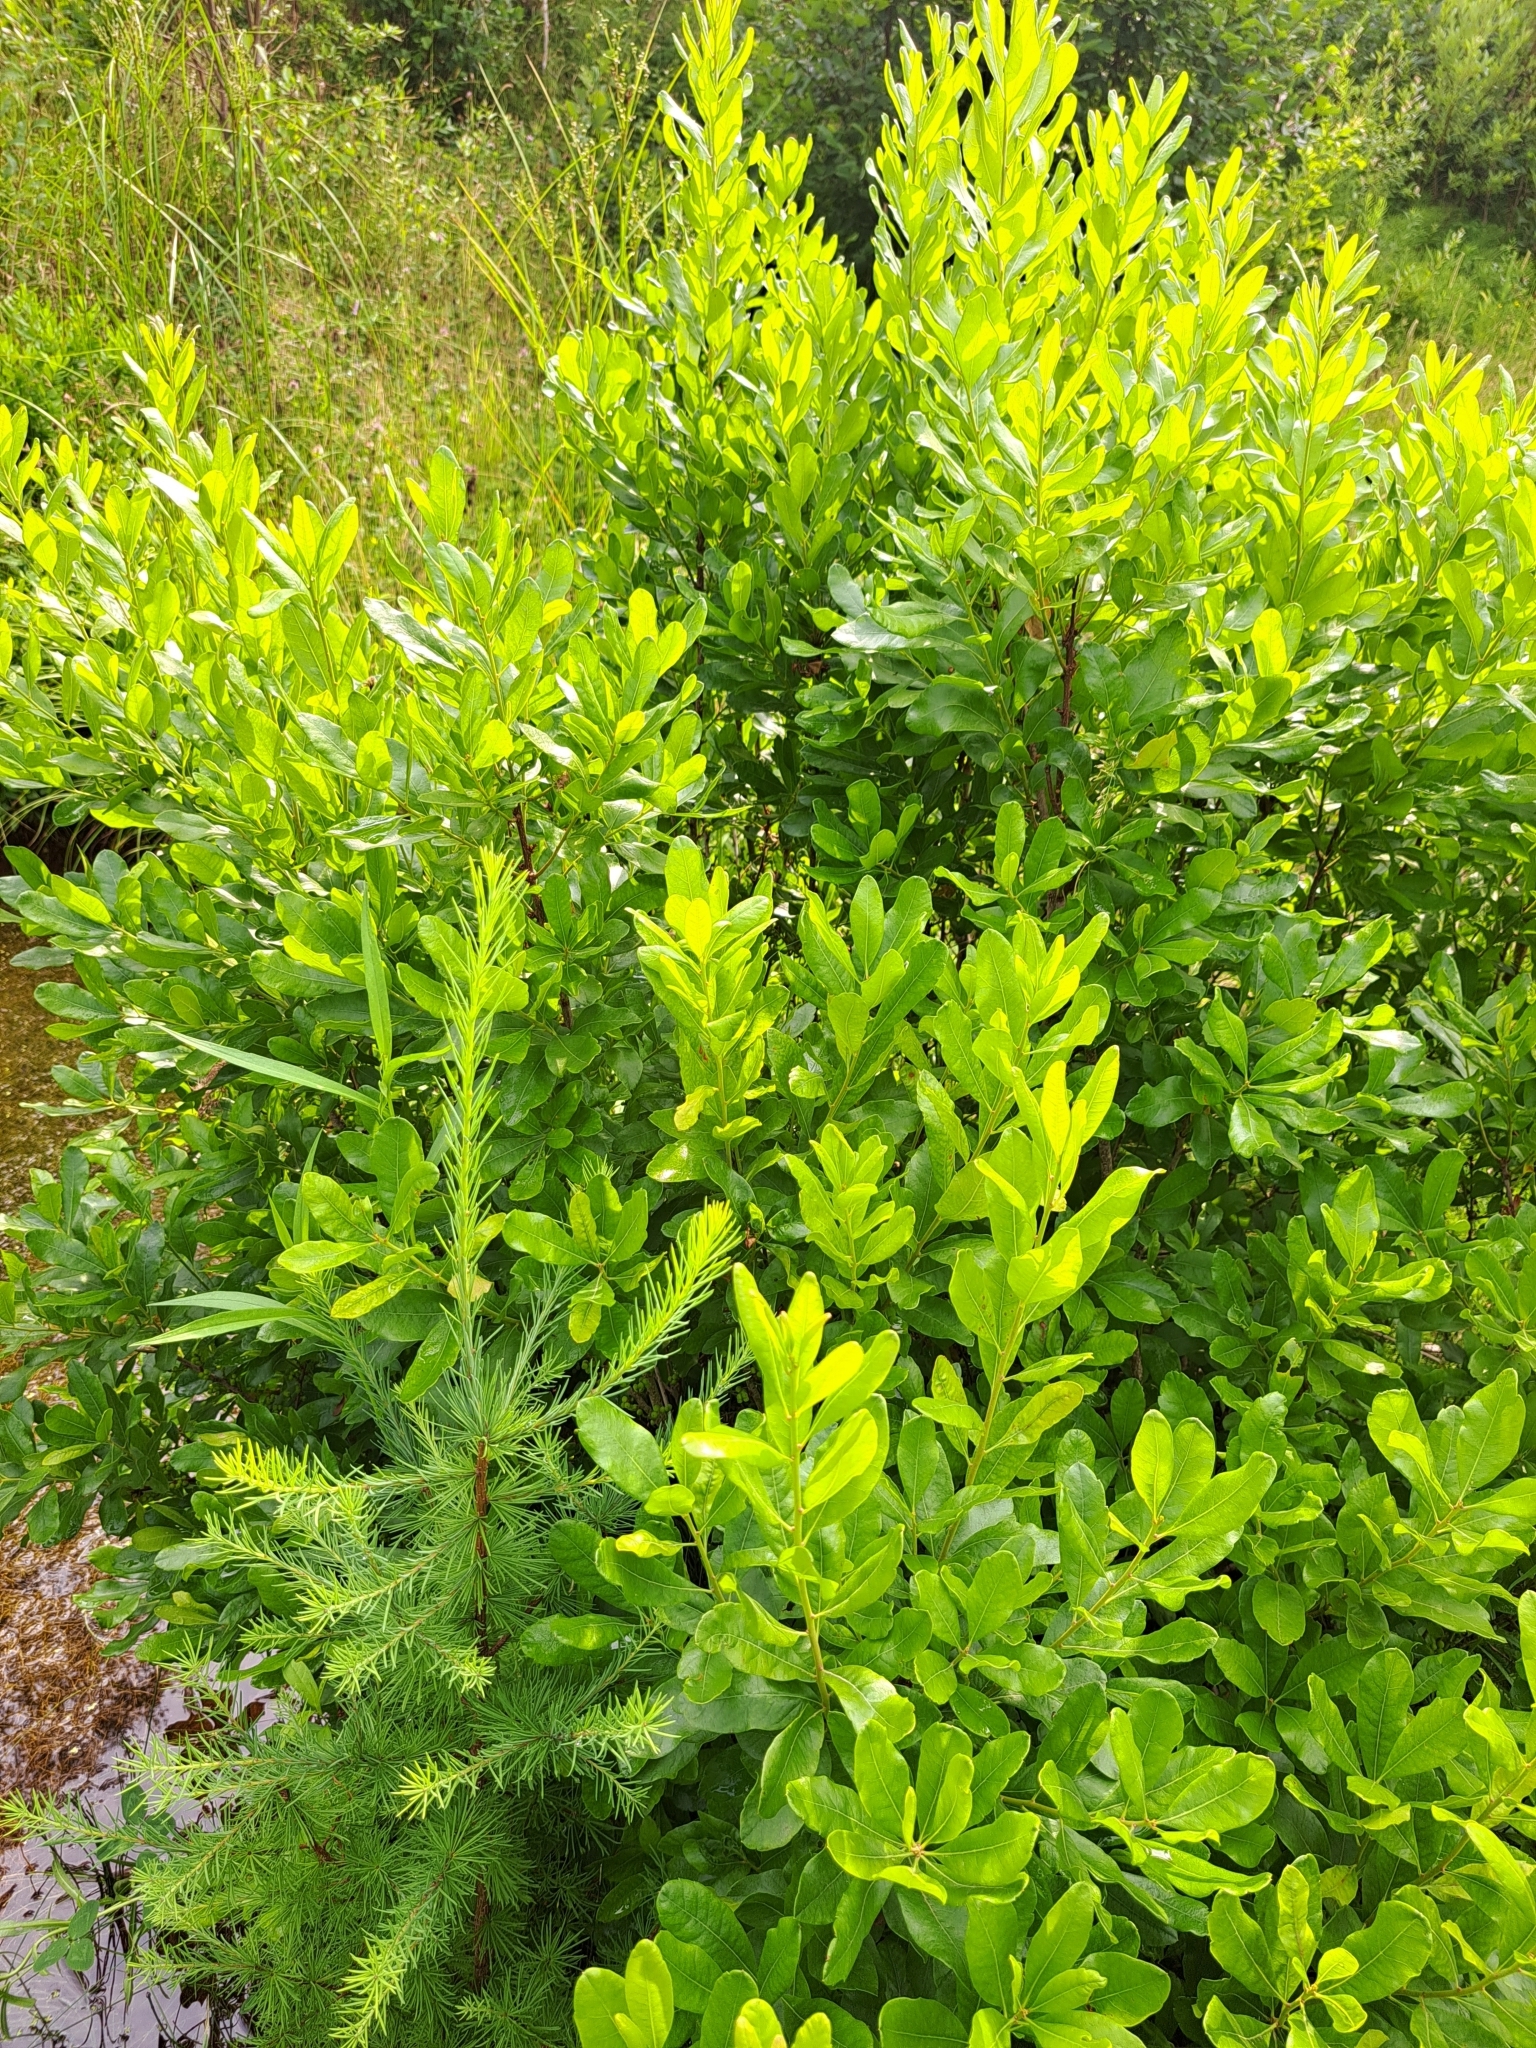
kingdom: Plantae
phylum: Tracheophyta
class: Magnoliopsida
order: Fagales
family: Myricaceae
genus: Morella
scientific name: Morella pensylvanica
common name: Northern bayberry
